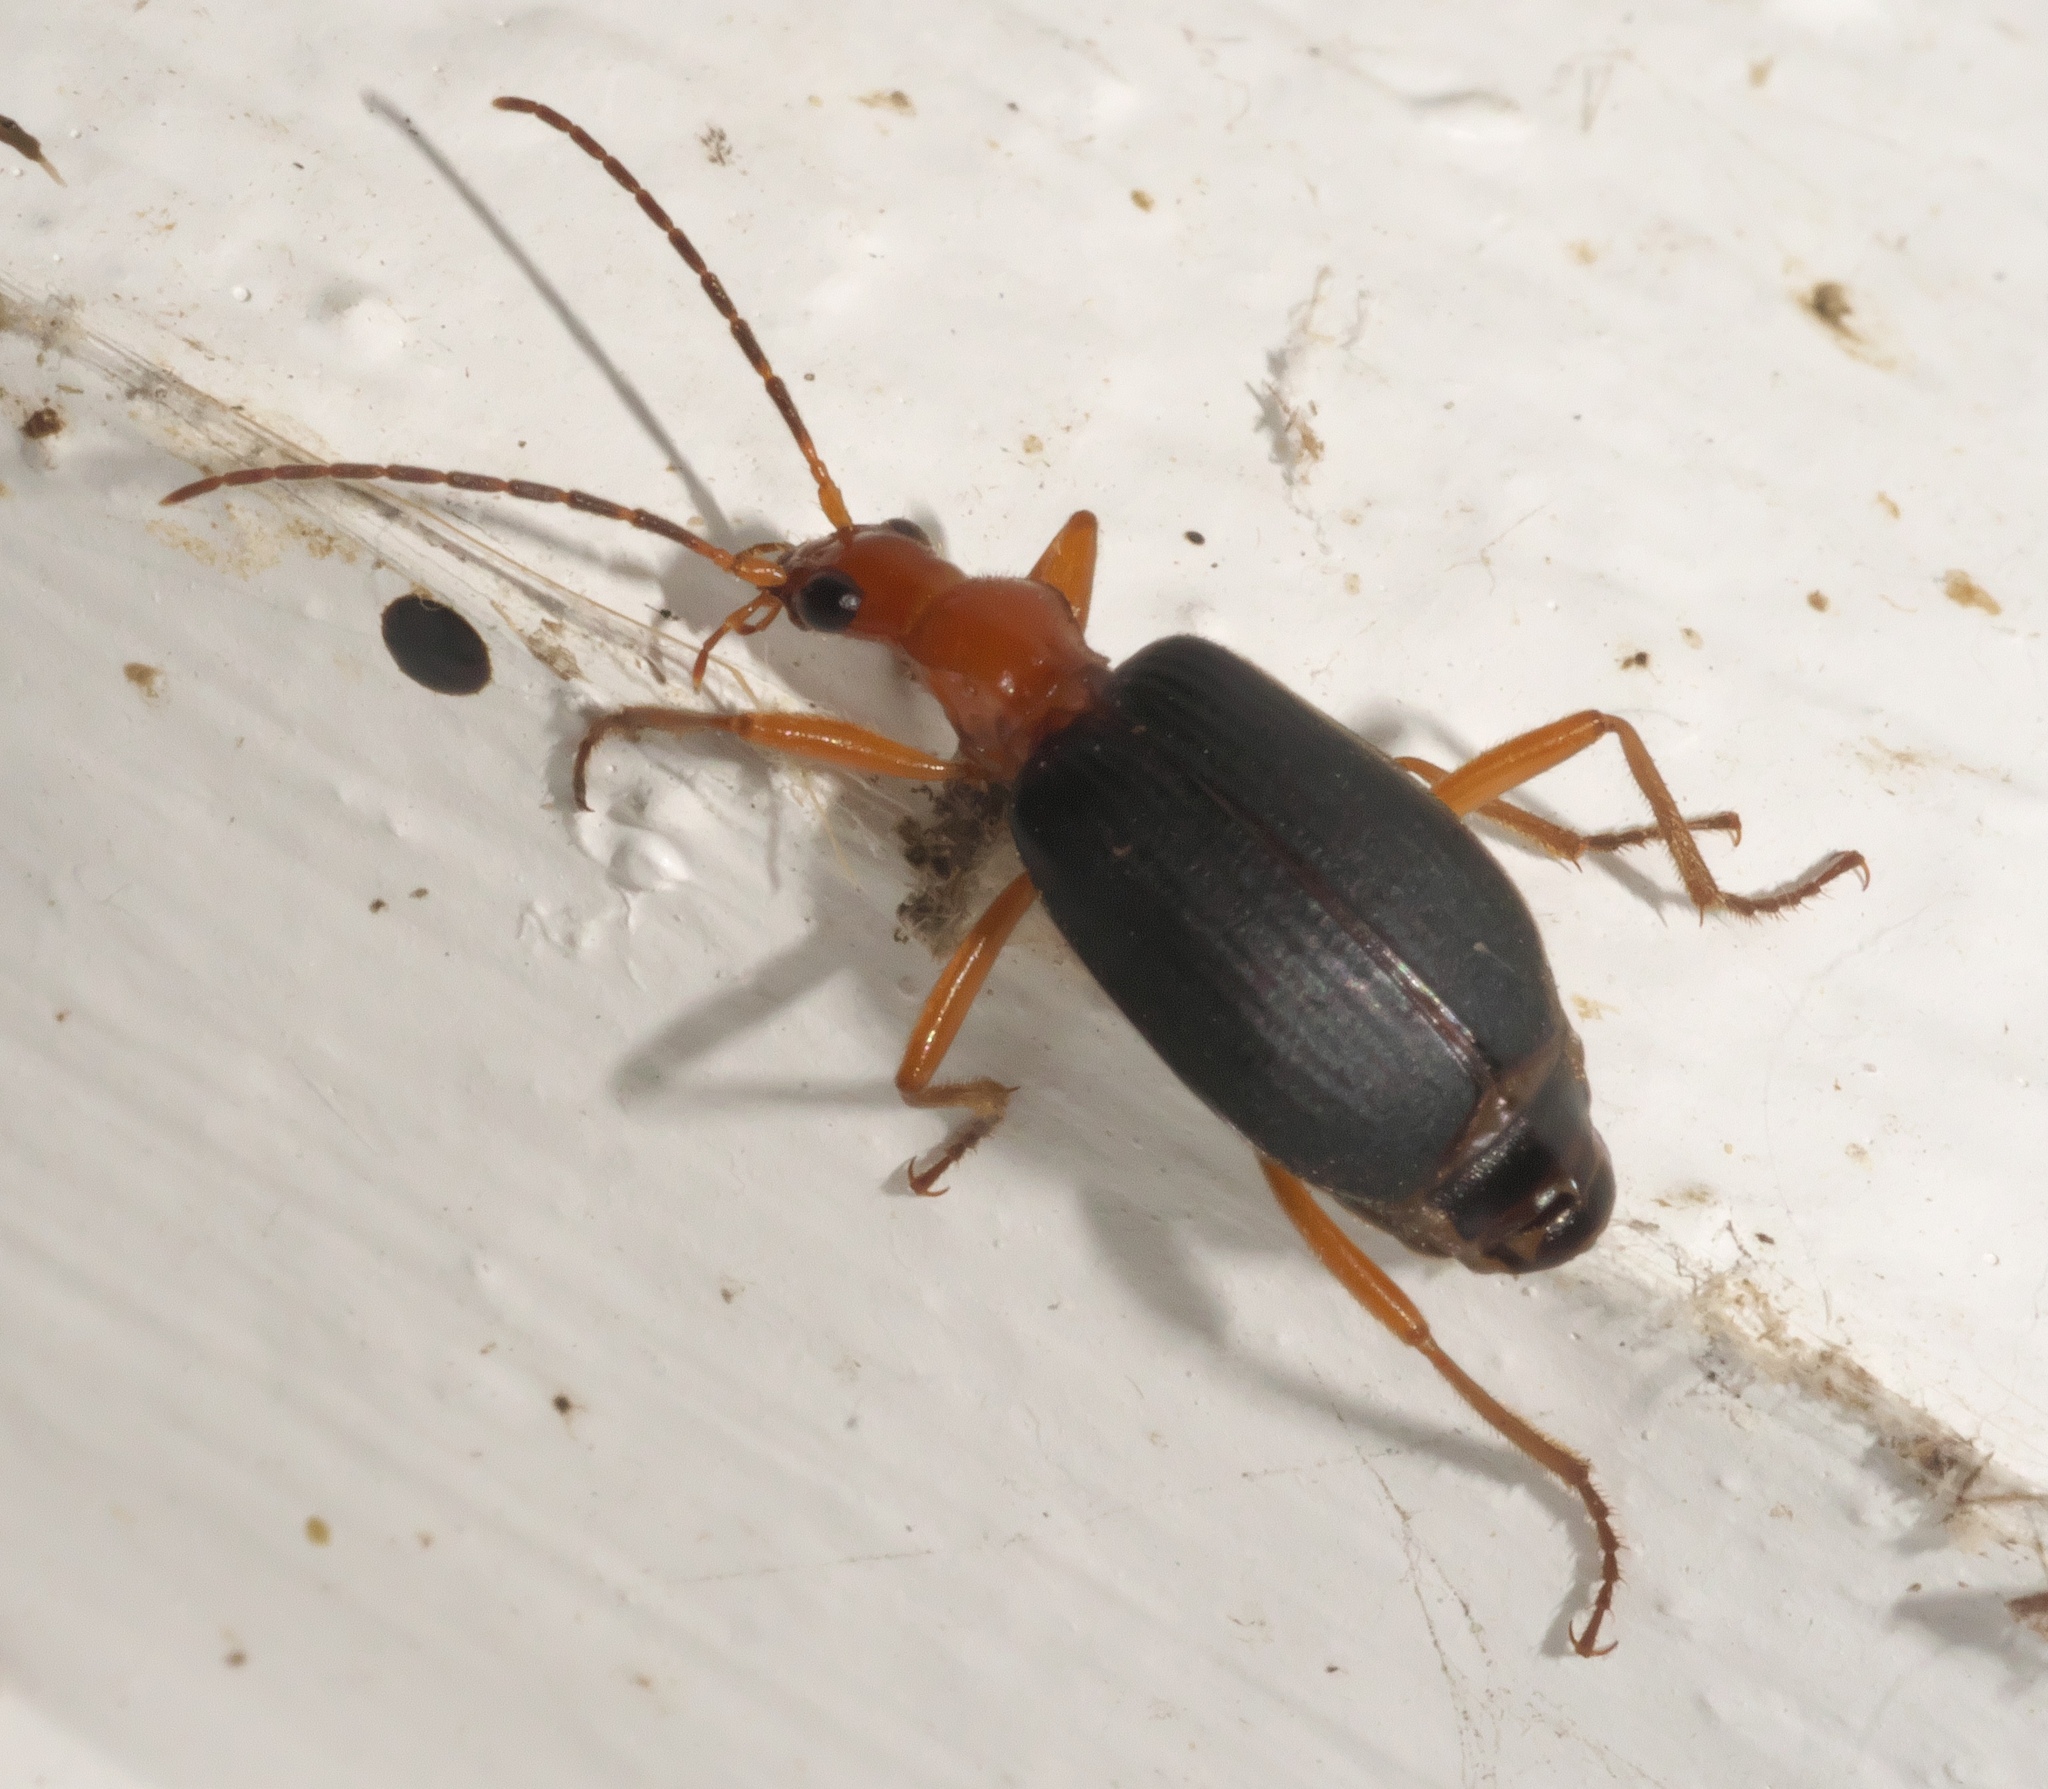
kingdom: Animalia
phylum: Arthropoda
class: Insecta
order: Coleoptera
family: Carabidae
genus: Brachinus
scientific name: Brachinus
